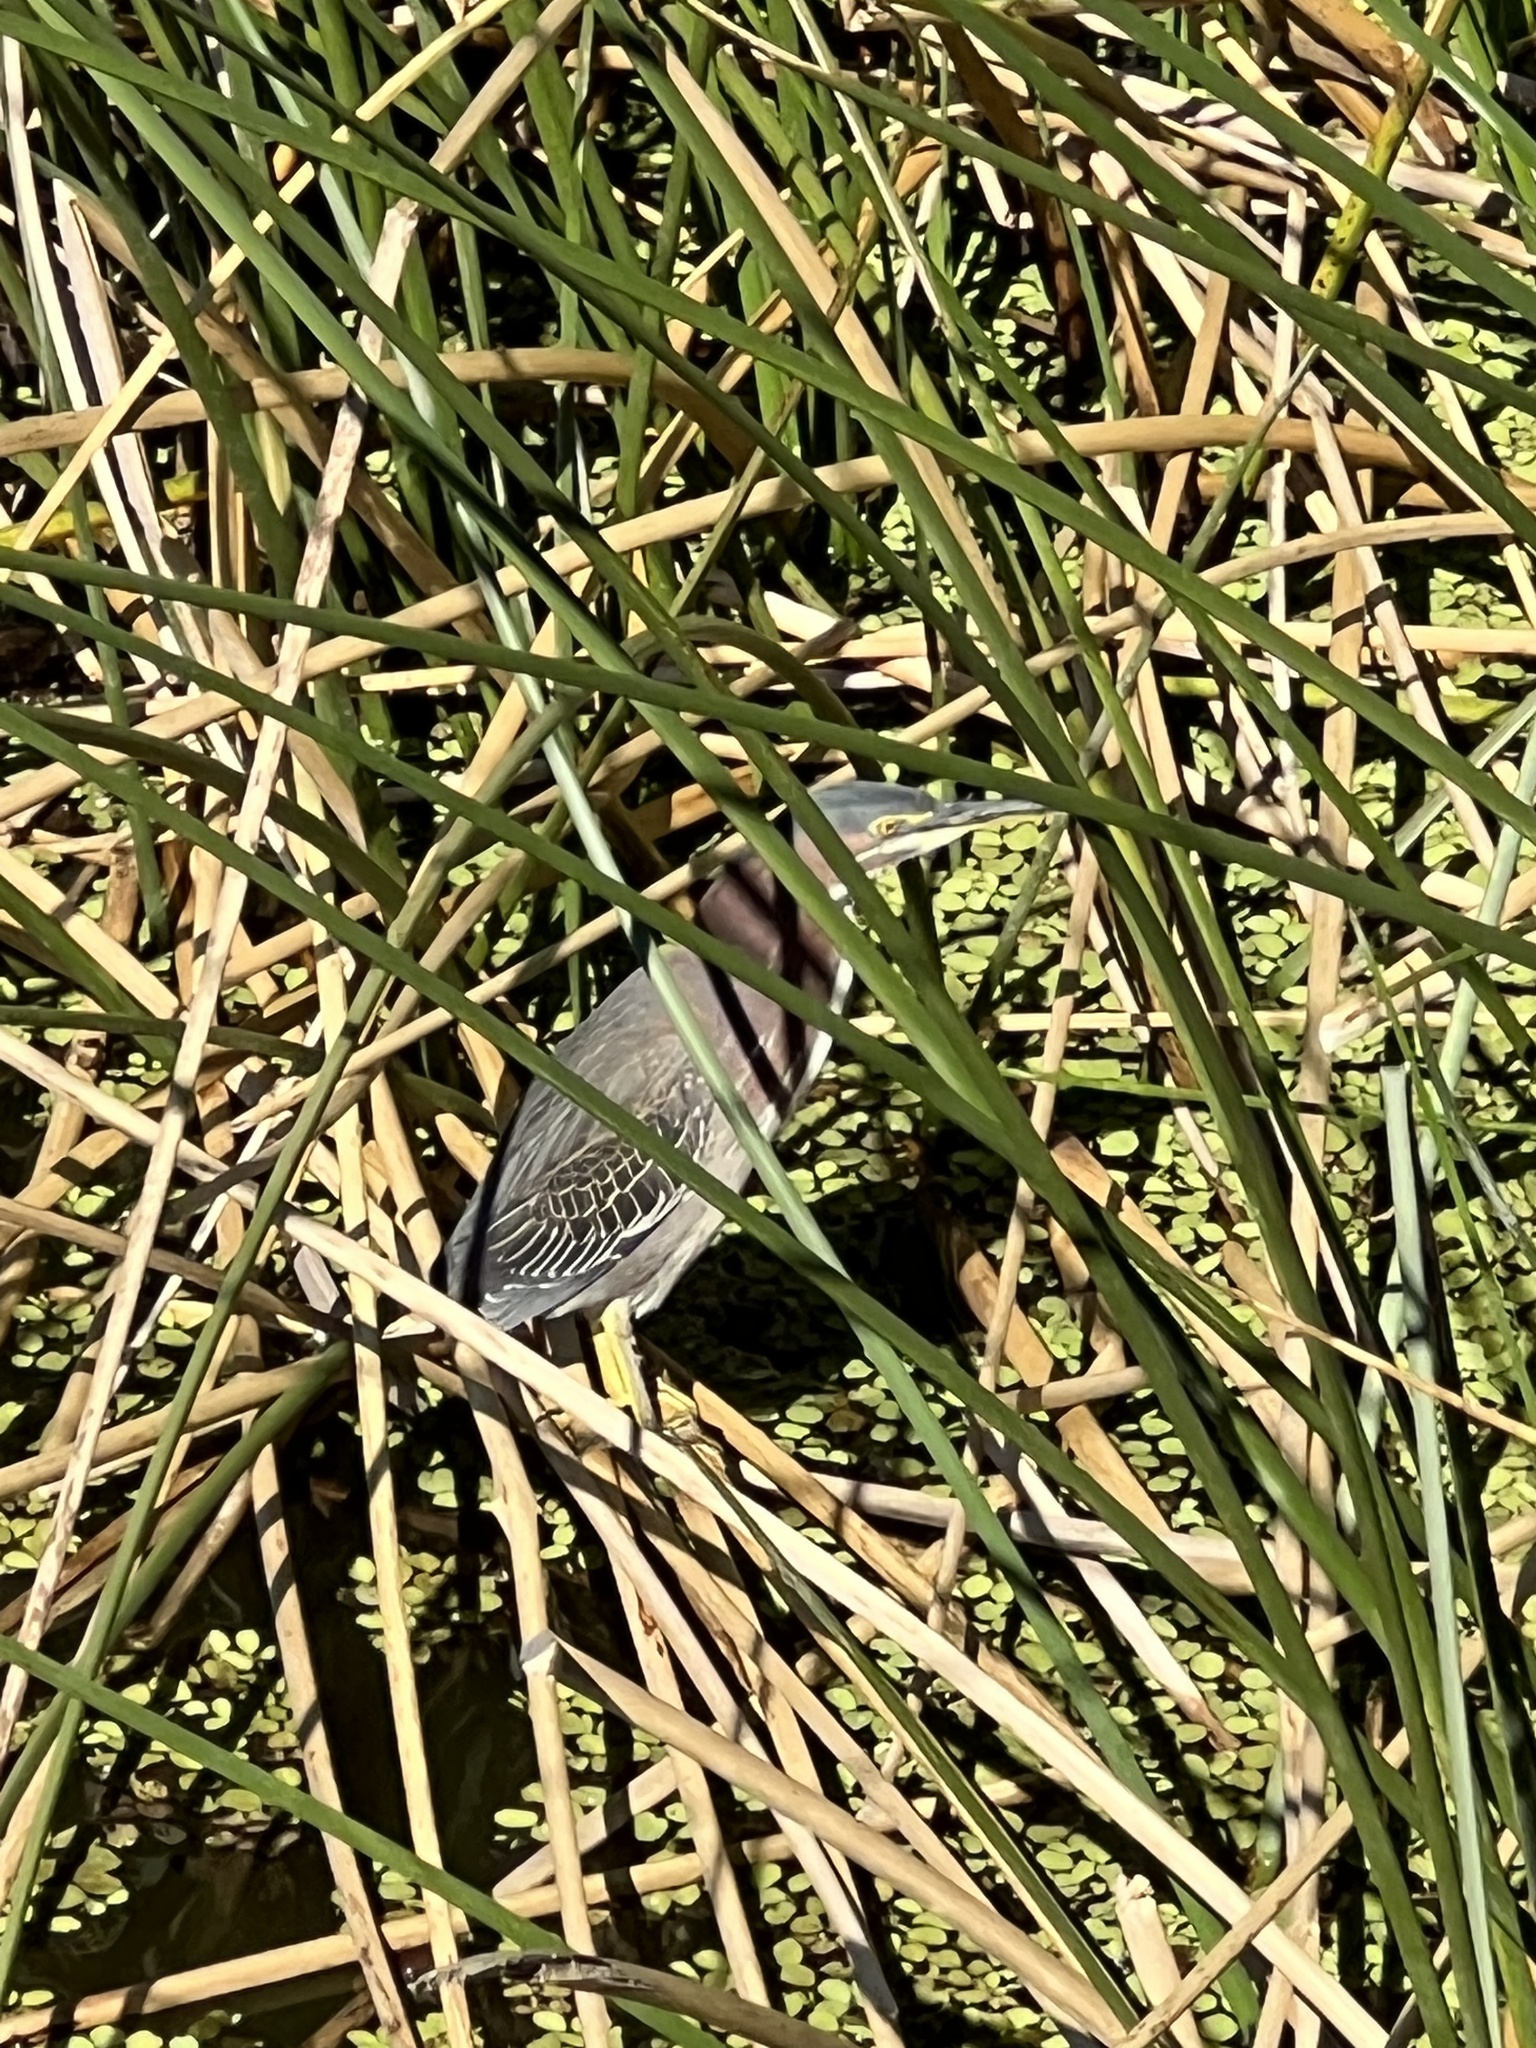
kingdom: Animalia
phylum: Chordata
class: Aves
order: Pelecaniformes
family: Ardeidae
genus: Butorides
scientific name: Butorides virescens
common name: Green heron
